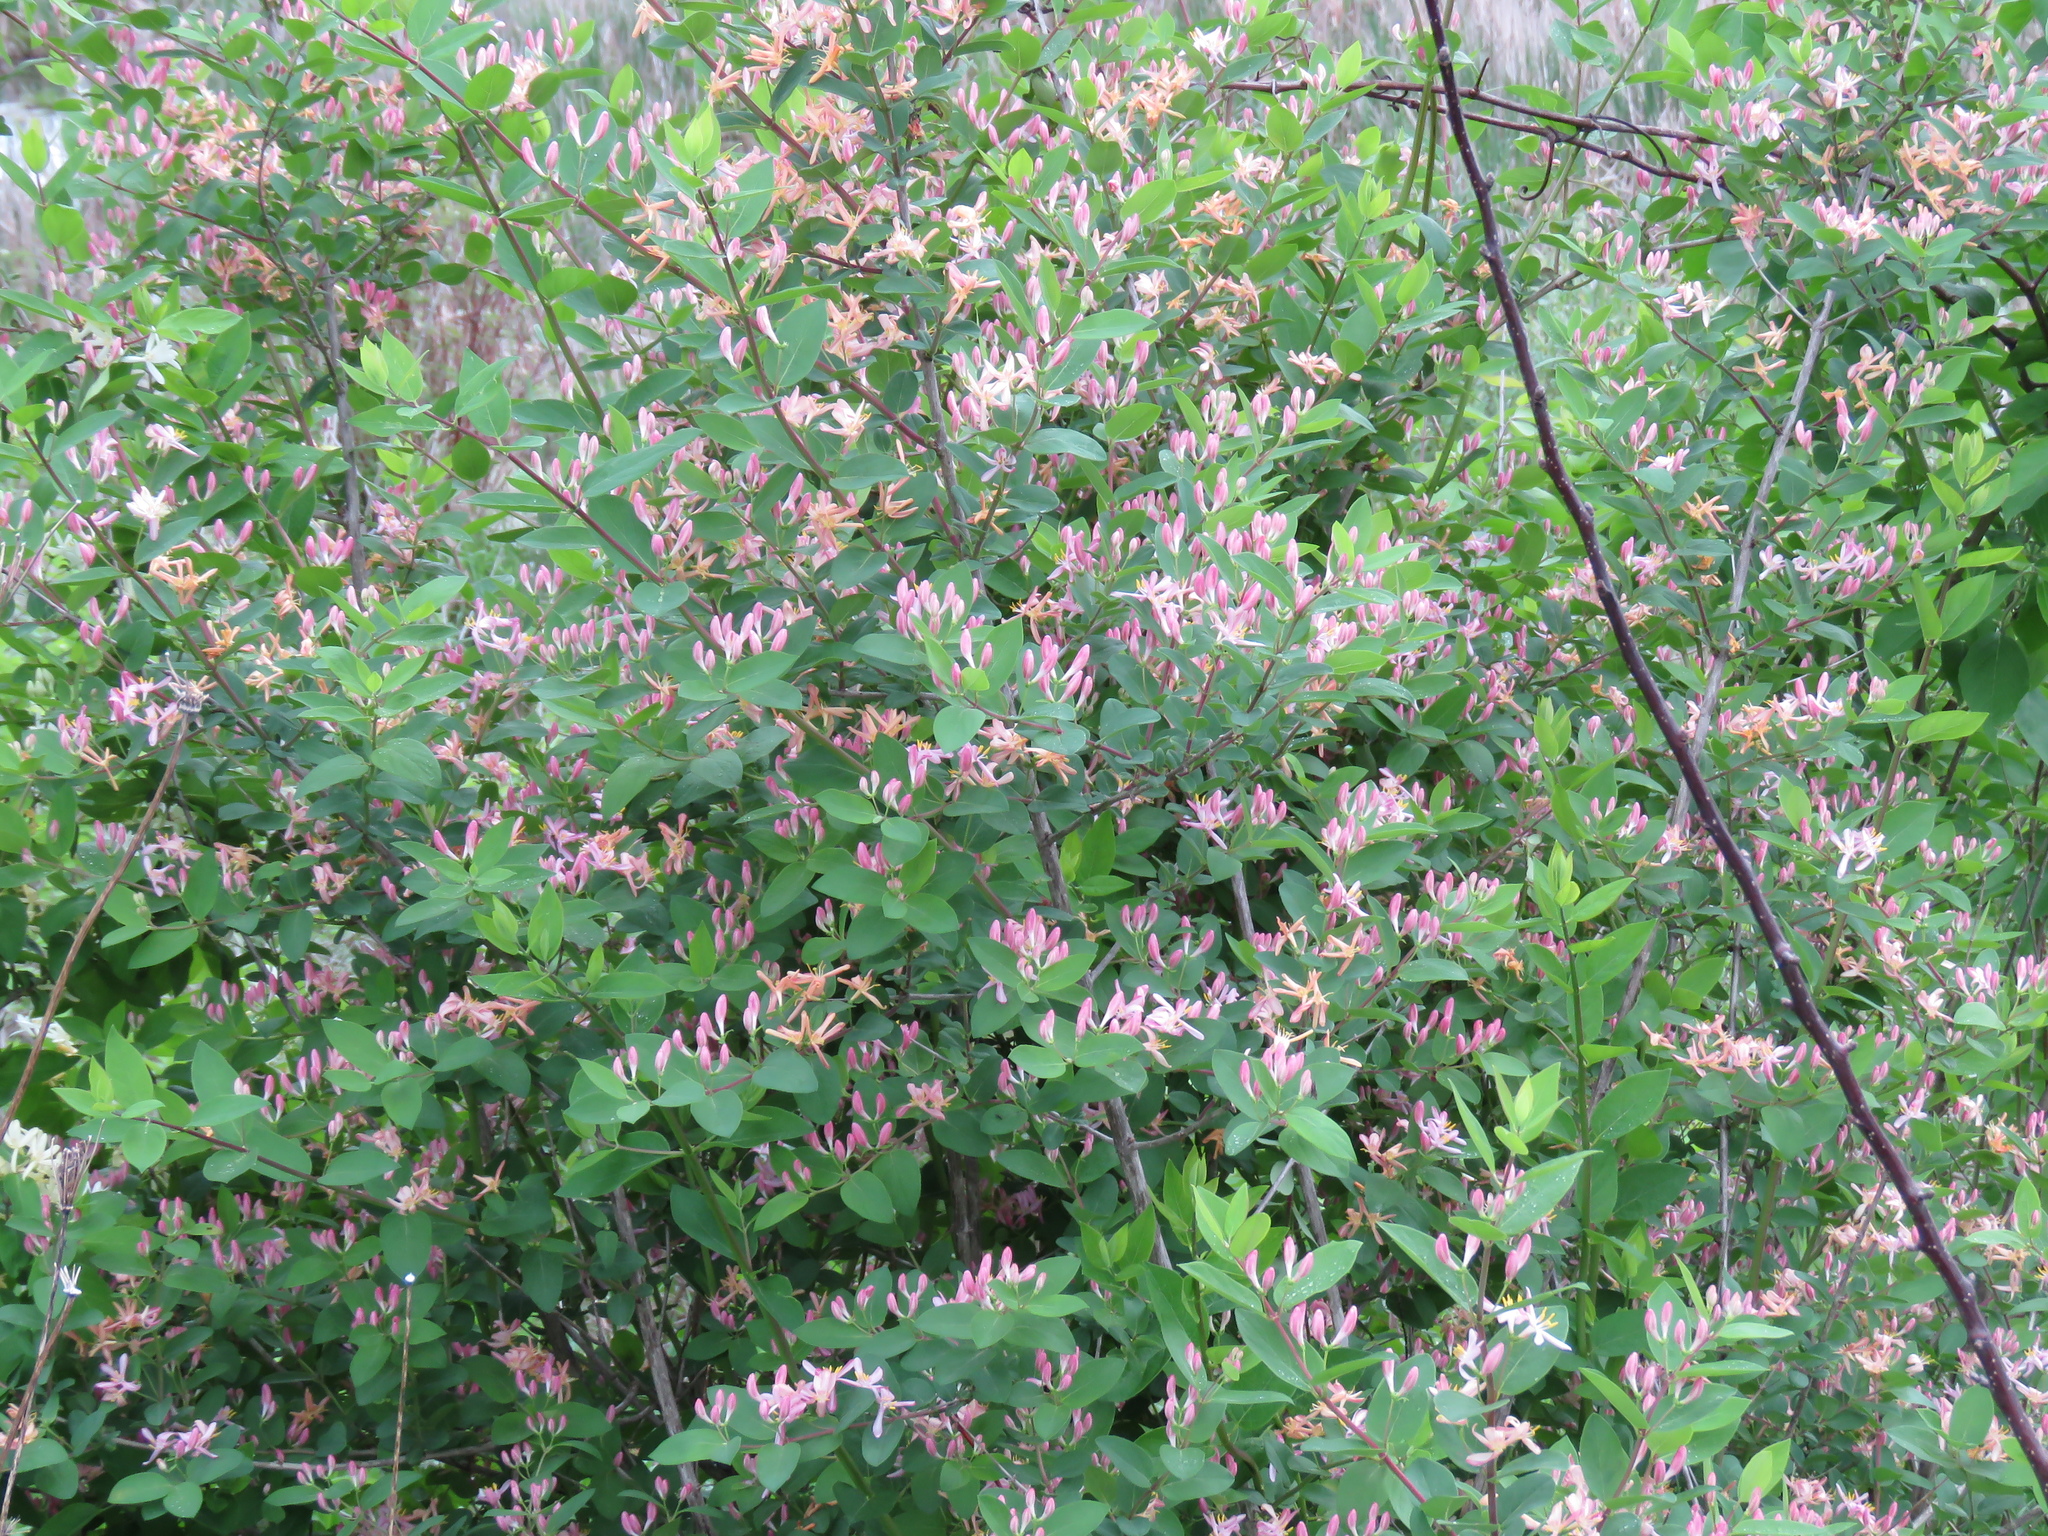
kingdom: Plantae
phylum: Tracheophyta
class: Magnoliopsida
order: Dipsacales
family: Caprifoliaceae
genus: Lonicera
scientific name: Lonicera tatarica
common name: Tatarian honeysuckle
